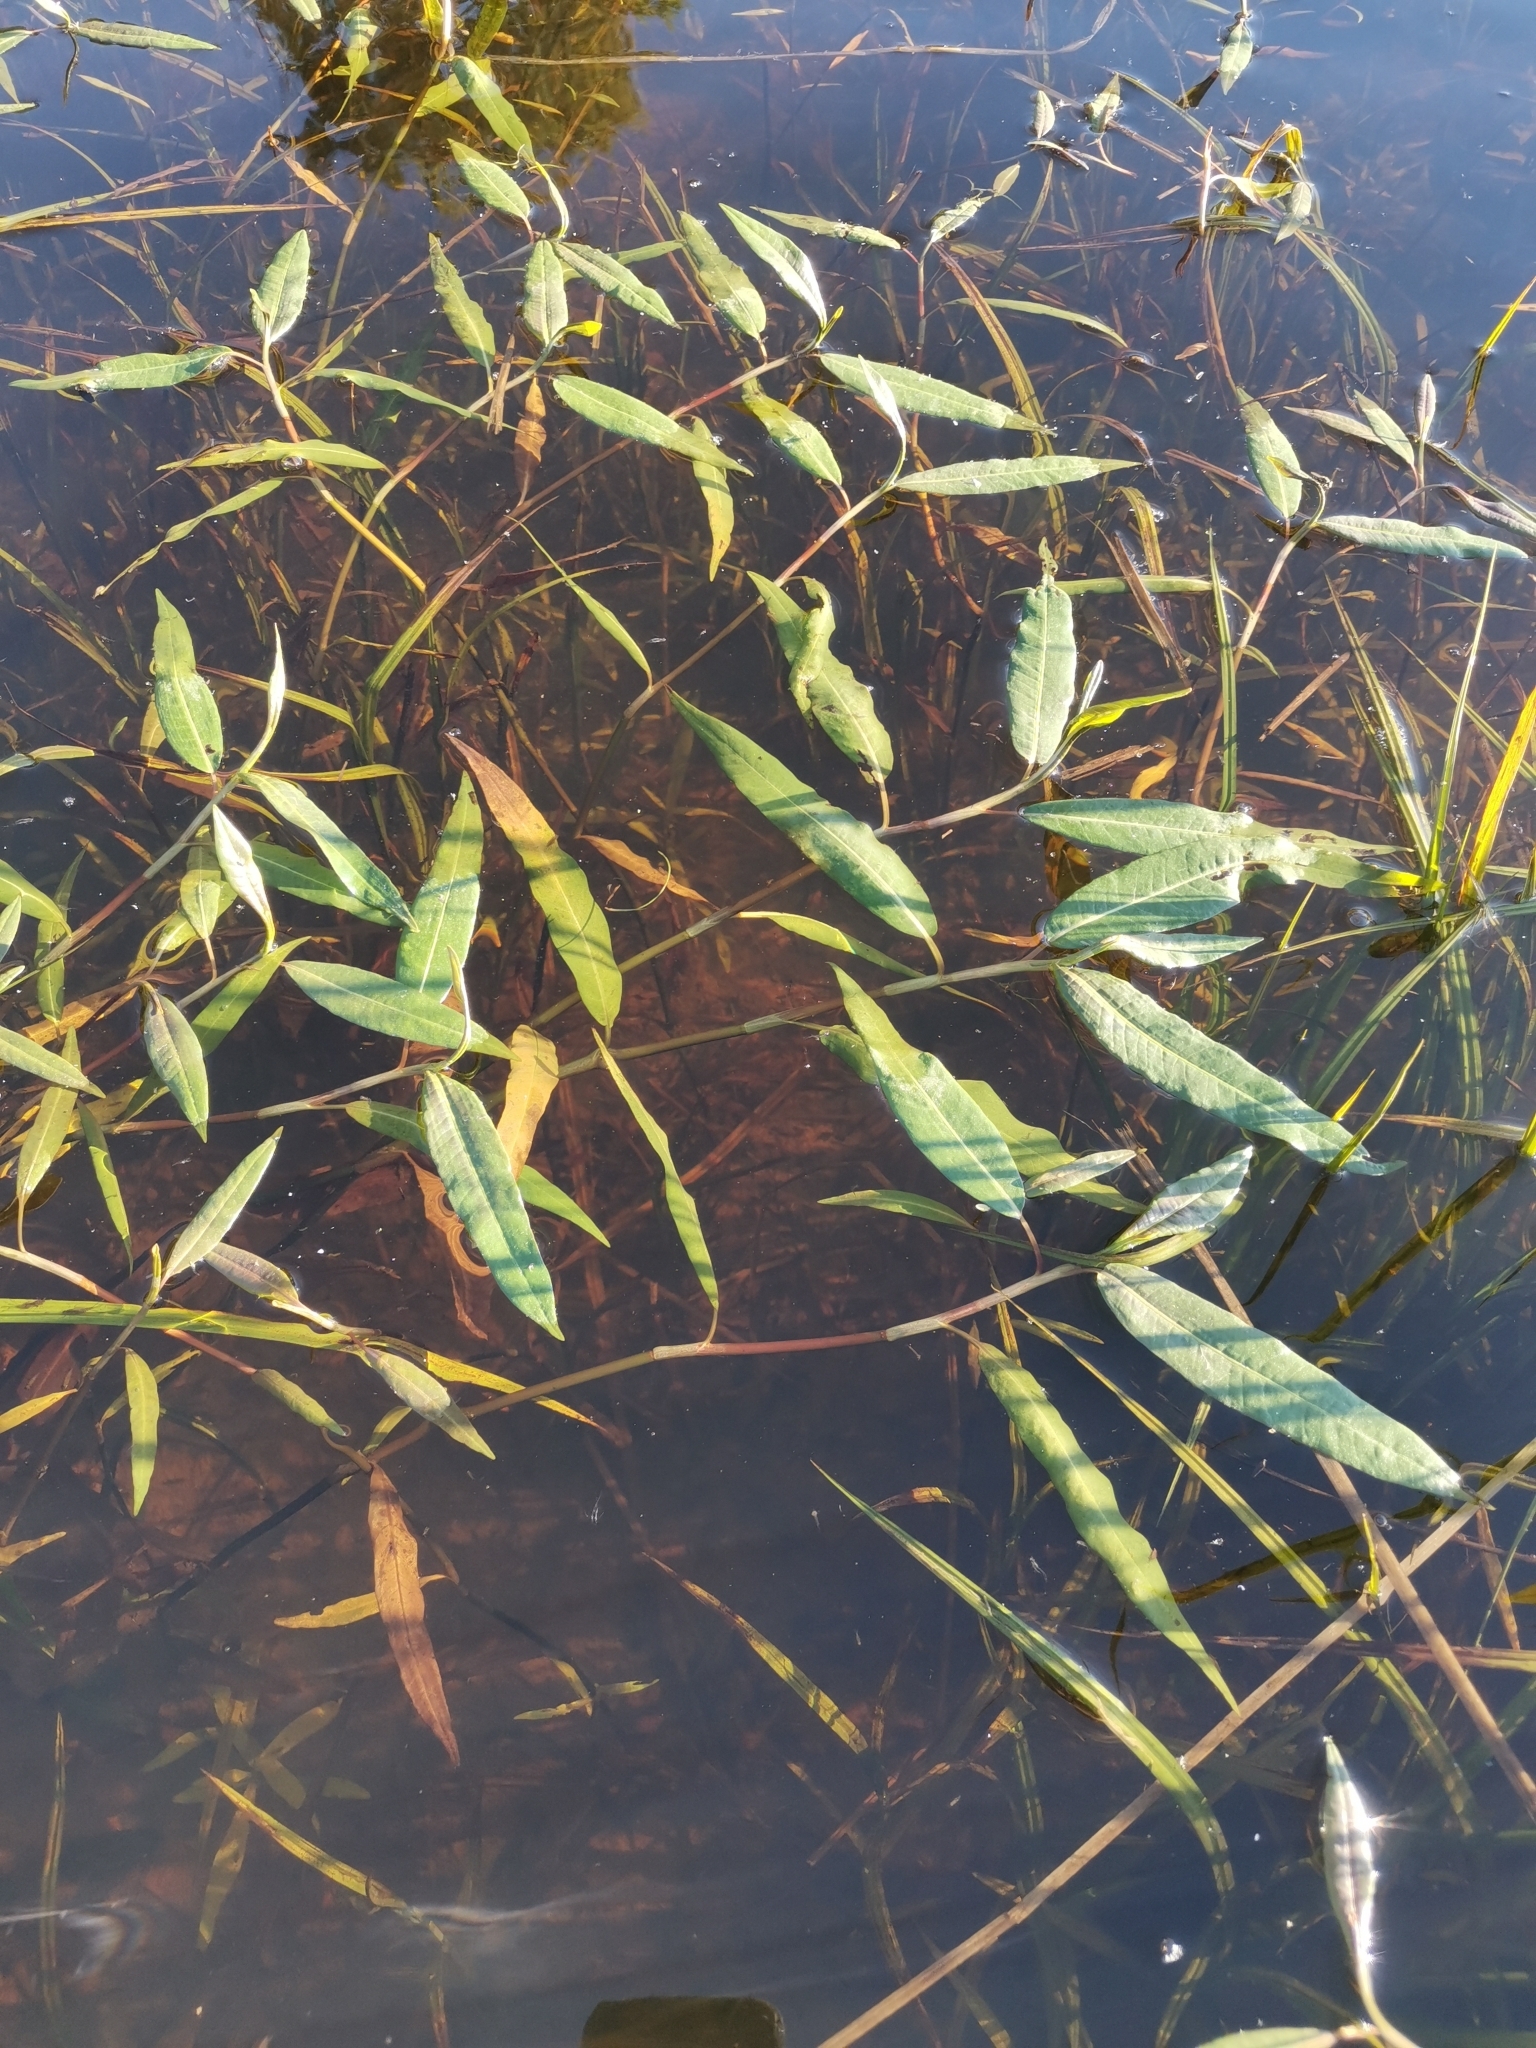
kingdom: Plantae
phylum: Tracheophyta
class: Magnoliopsida
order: Caryophyllales
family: Polygonaceae
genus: Persicaria
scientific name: Persicaria amphibia
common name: Amphibious bistort
